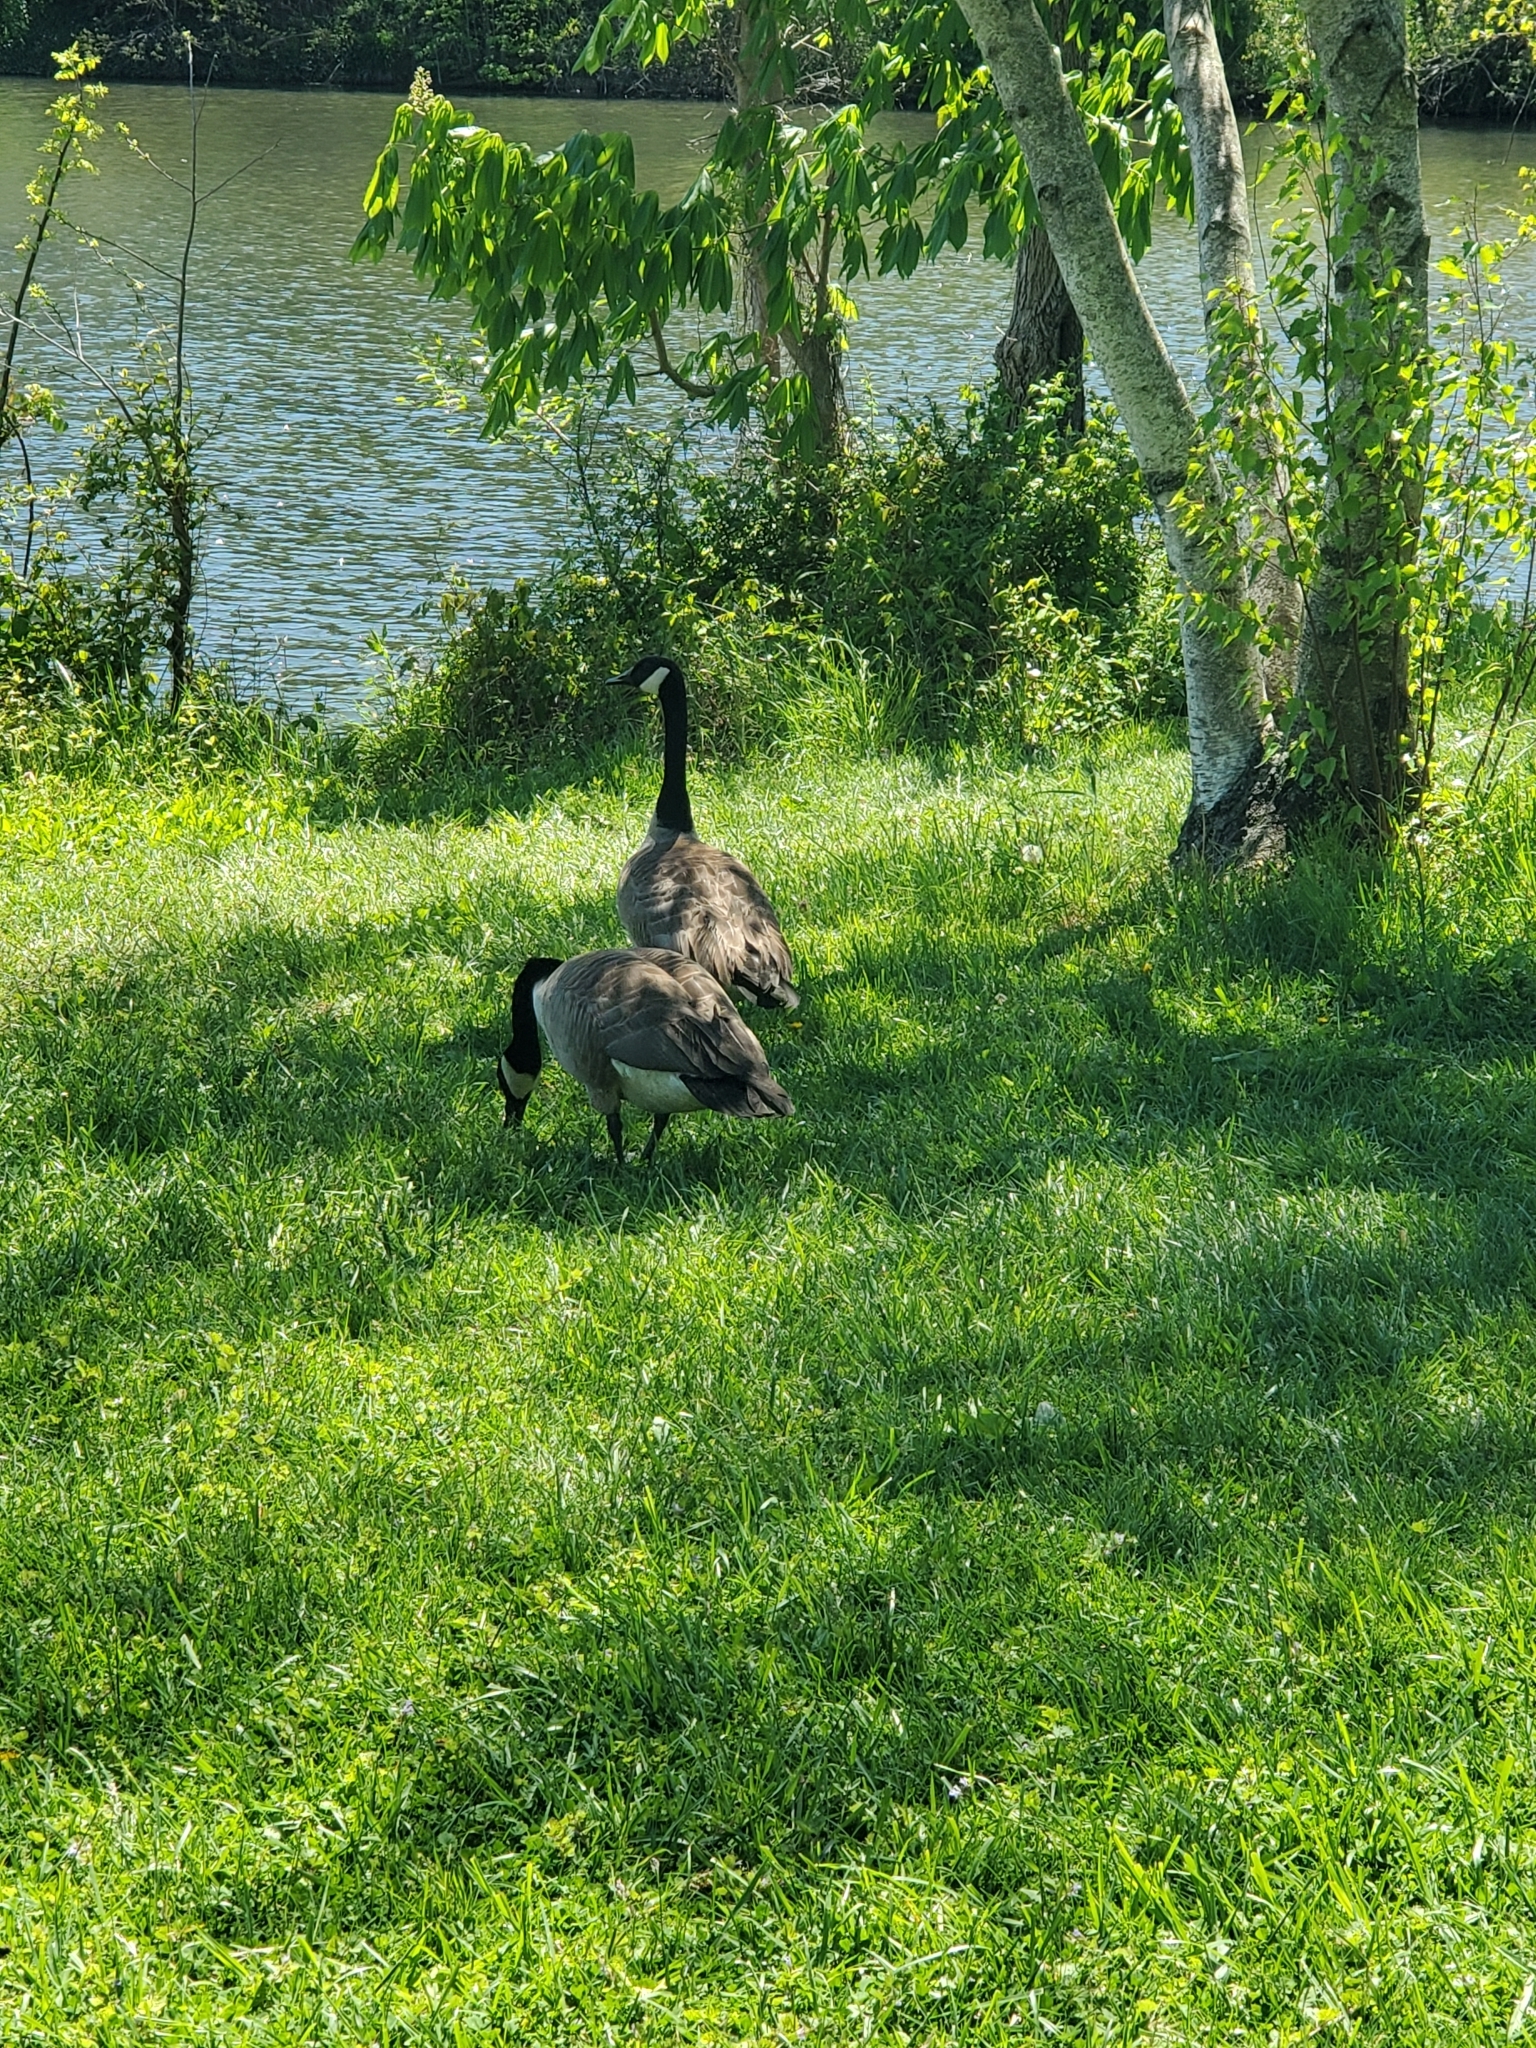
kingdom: Animalia
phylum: Chordata
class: Aves
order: Anseriformes
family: Anatidae
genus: Branta
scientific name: Branta canadensis
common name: Canada goose
